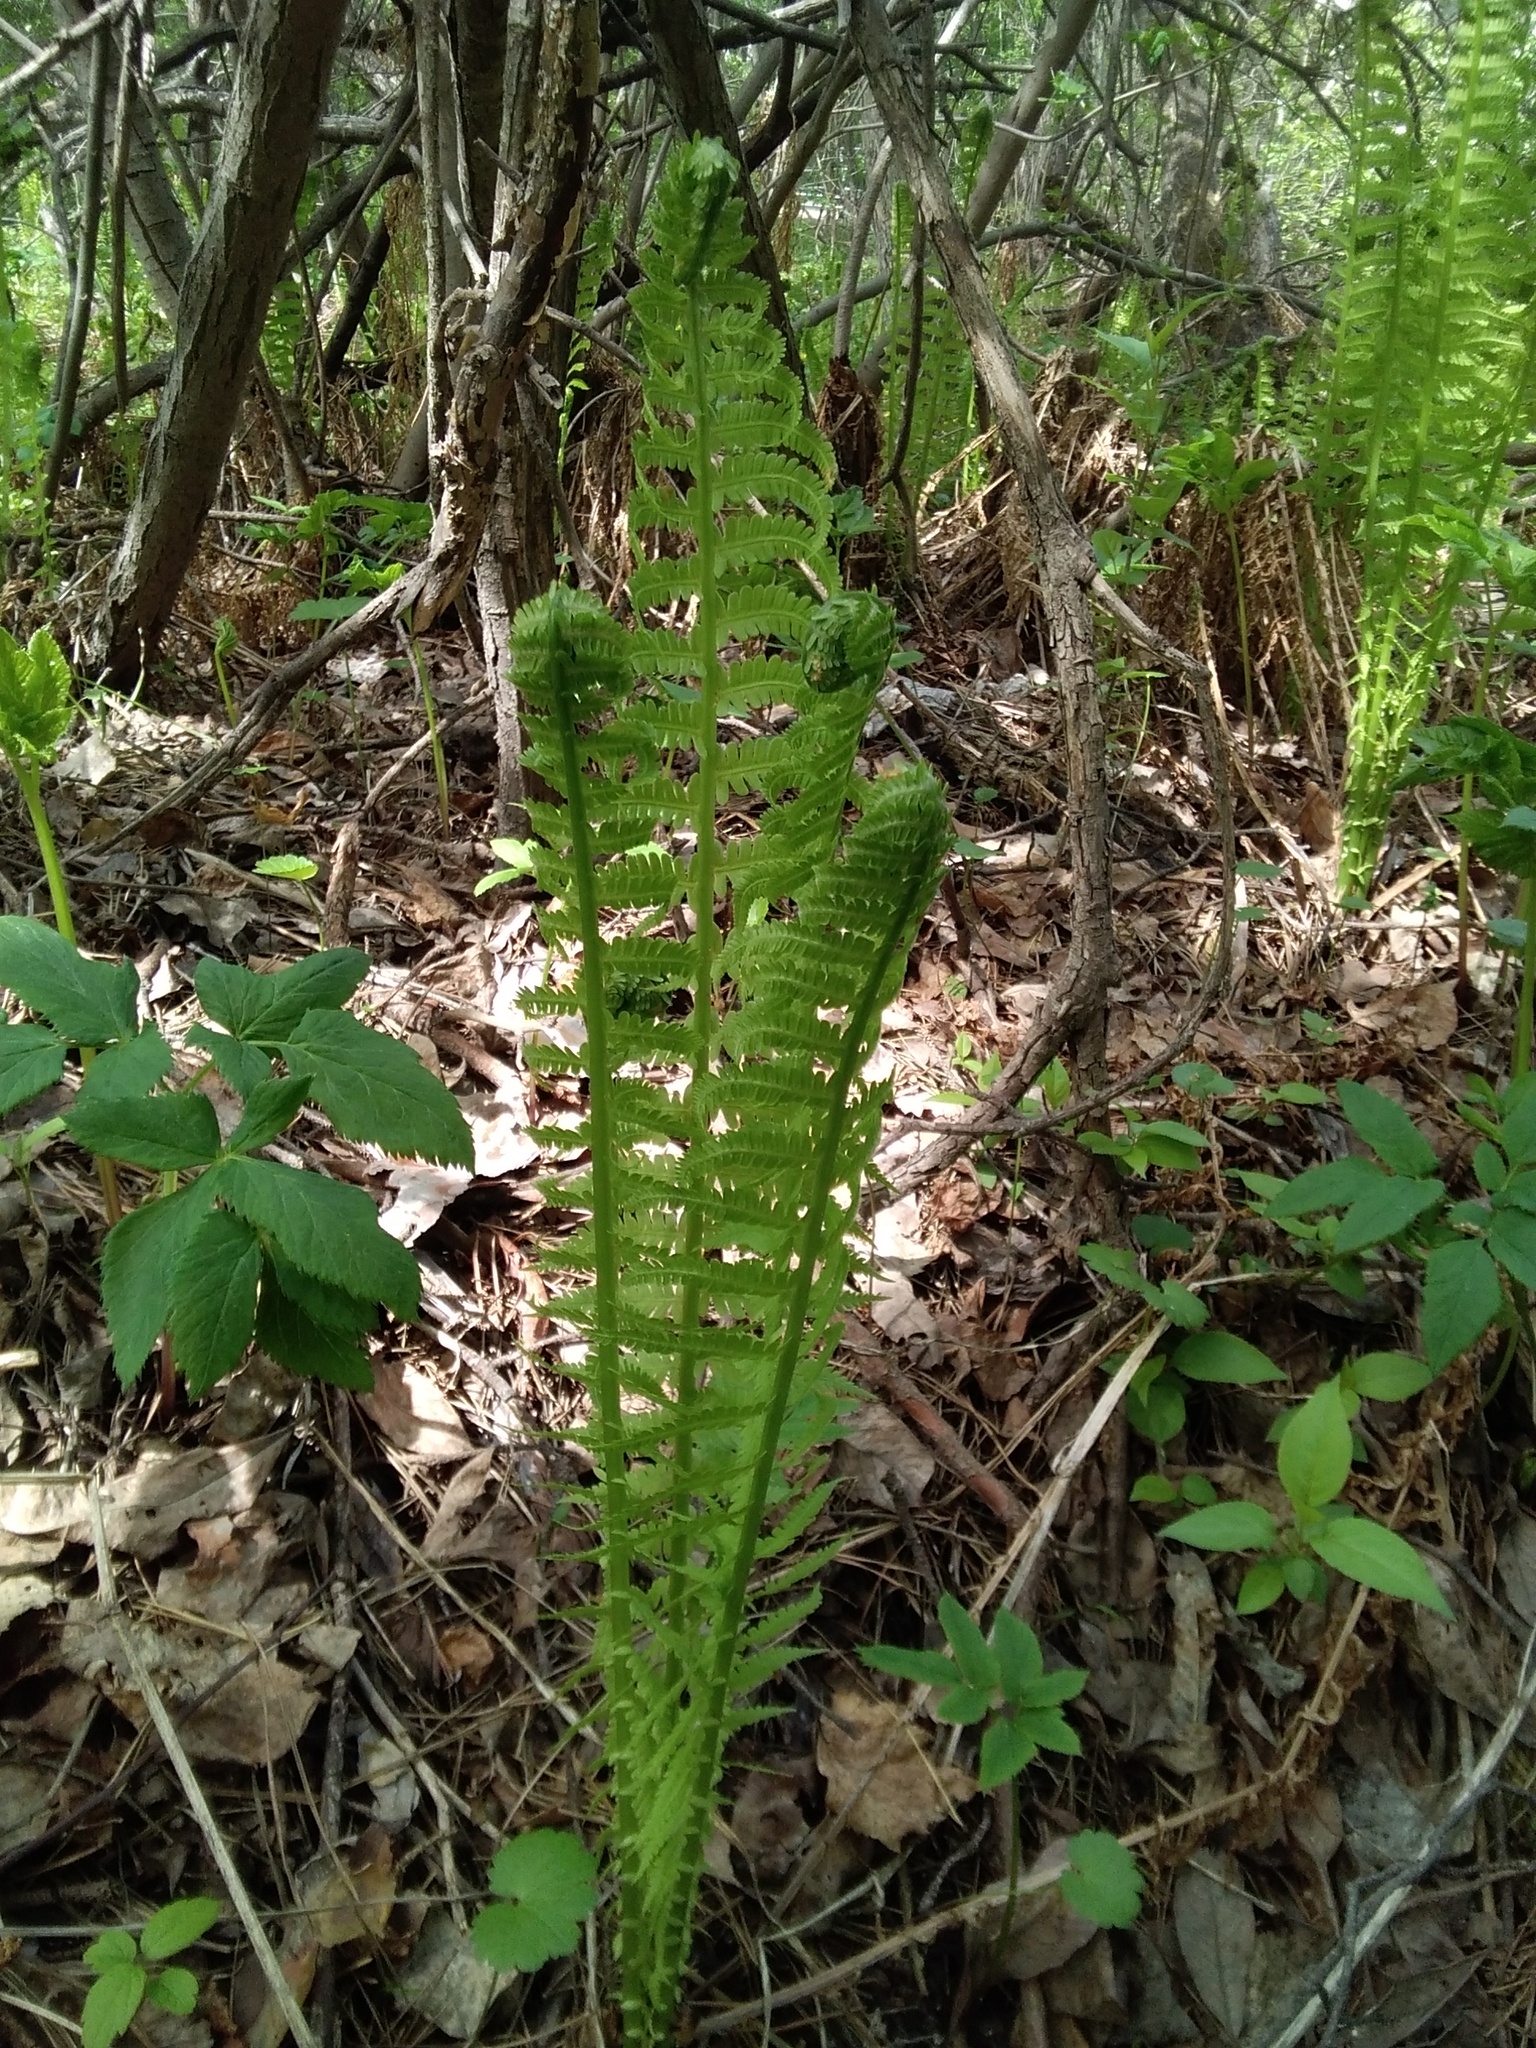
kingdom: Plantae
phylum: Tracheophyta
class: Polypodiopsida
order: Polypodiales
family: Onocleaceae
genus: Matteuccia
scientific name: Matteuccia struthiopteris
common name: Ostrich fern
